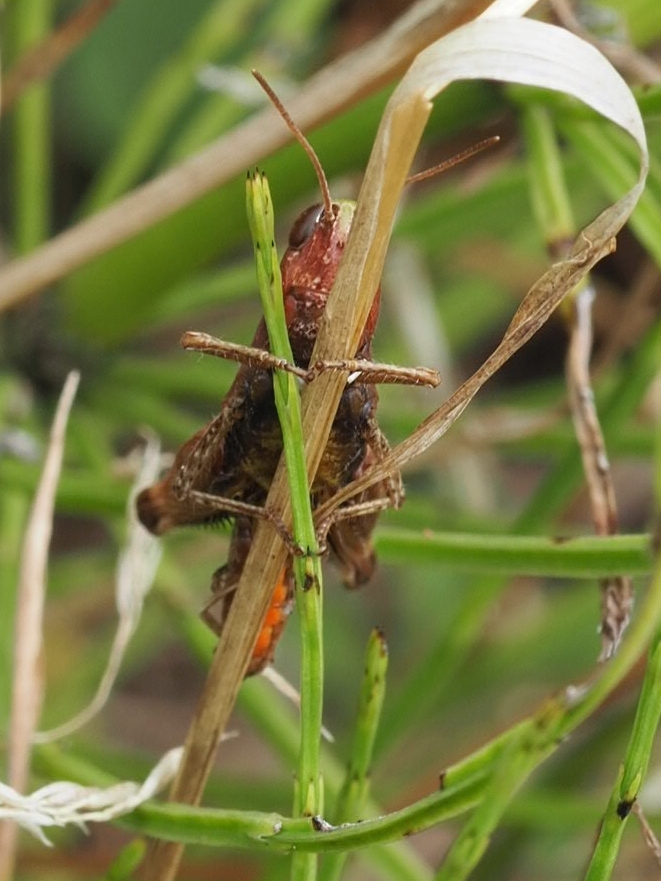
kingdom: Animalia
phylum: Arthropoda
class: Insecta
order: Orthoptera
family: Acrididae
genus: Omocestus
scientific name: Omocestus rufipes
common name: Woodland grasshopper
